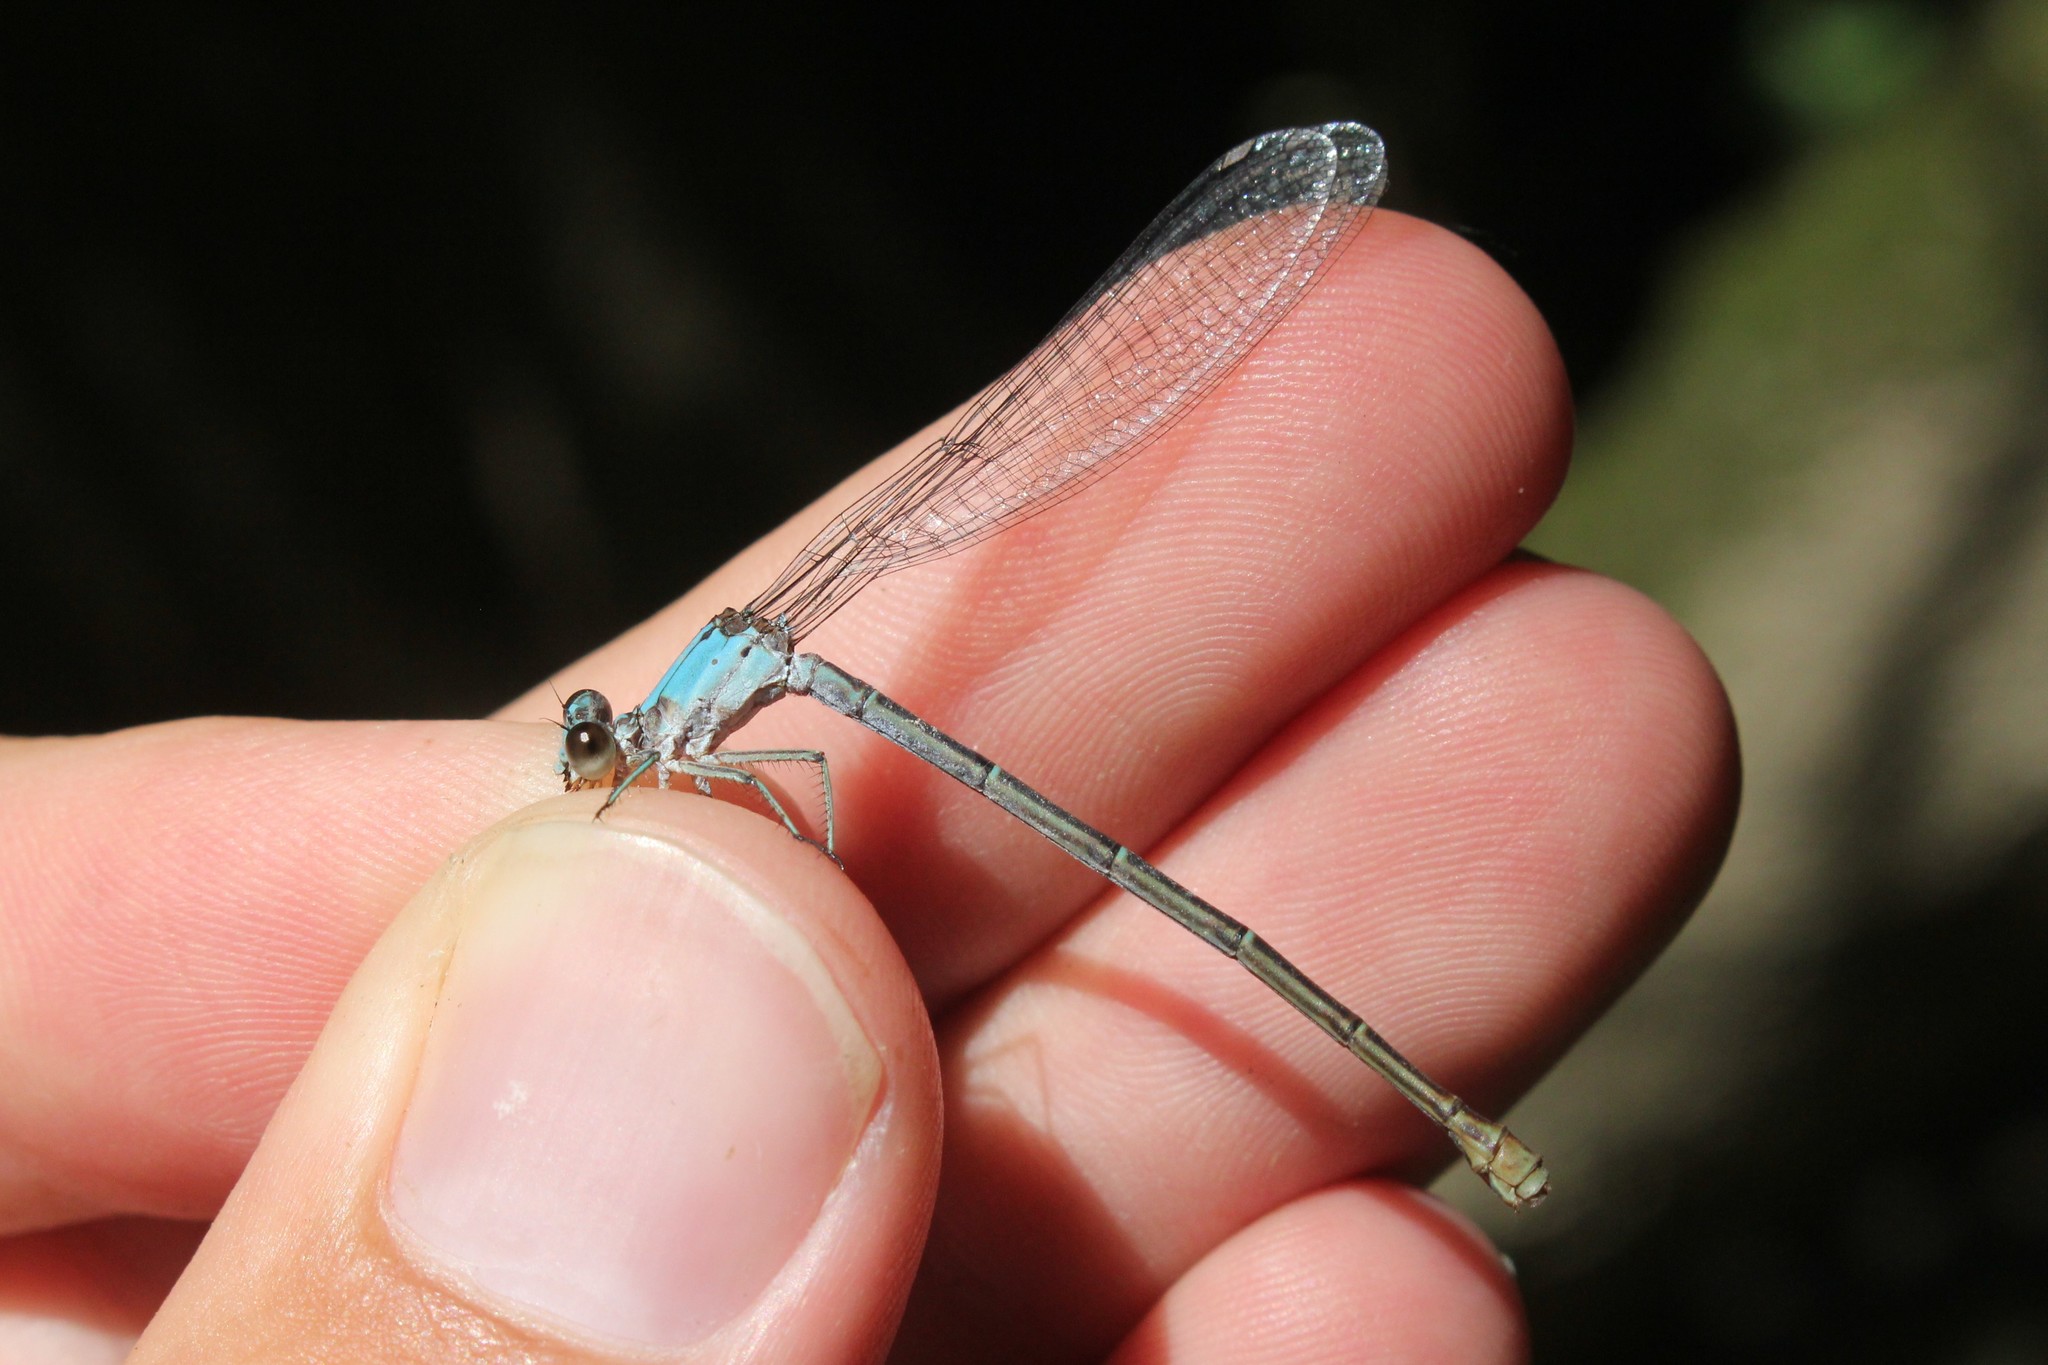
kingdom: Animalia
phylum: Arthropoda
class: Insecta
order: Odonata
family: Coenagrionidae
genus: Argia
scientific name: Argia moesta
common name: Powdered dancer
